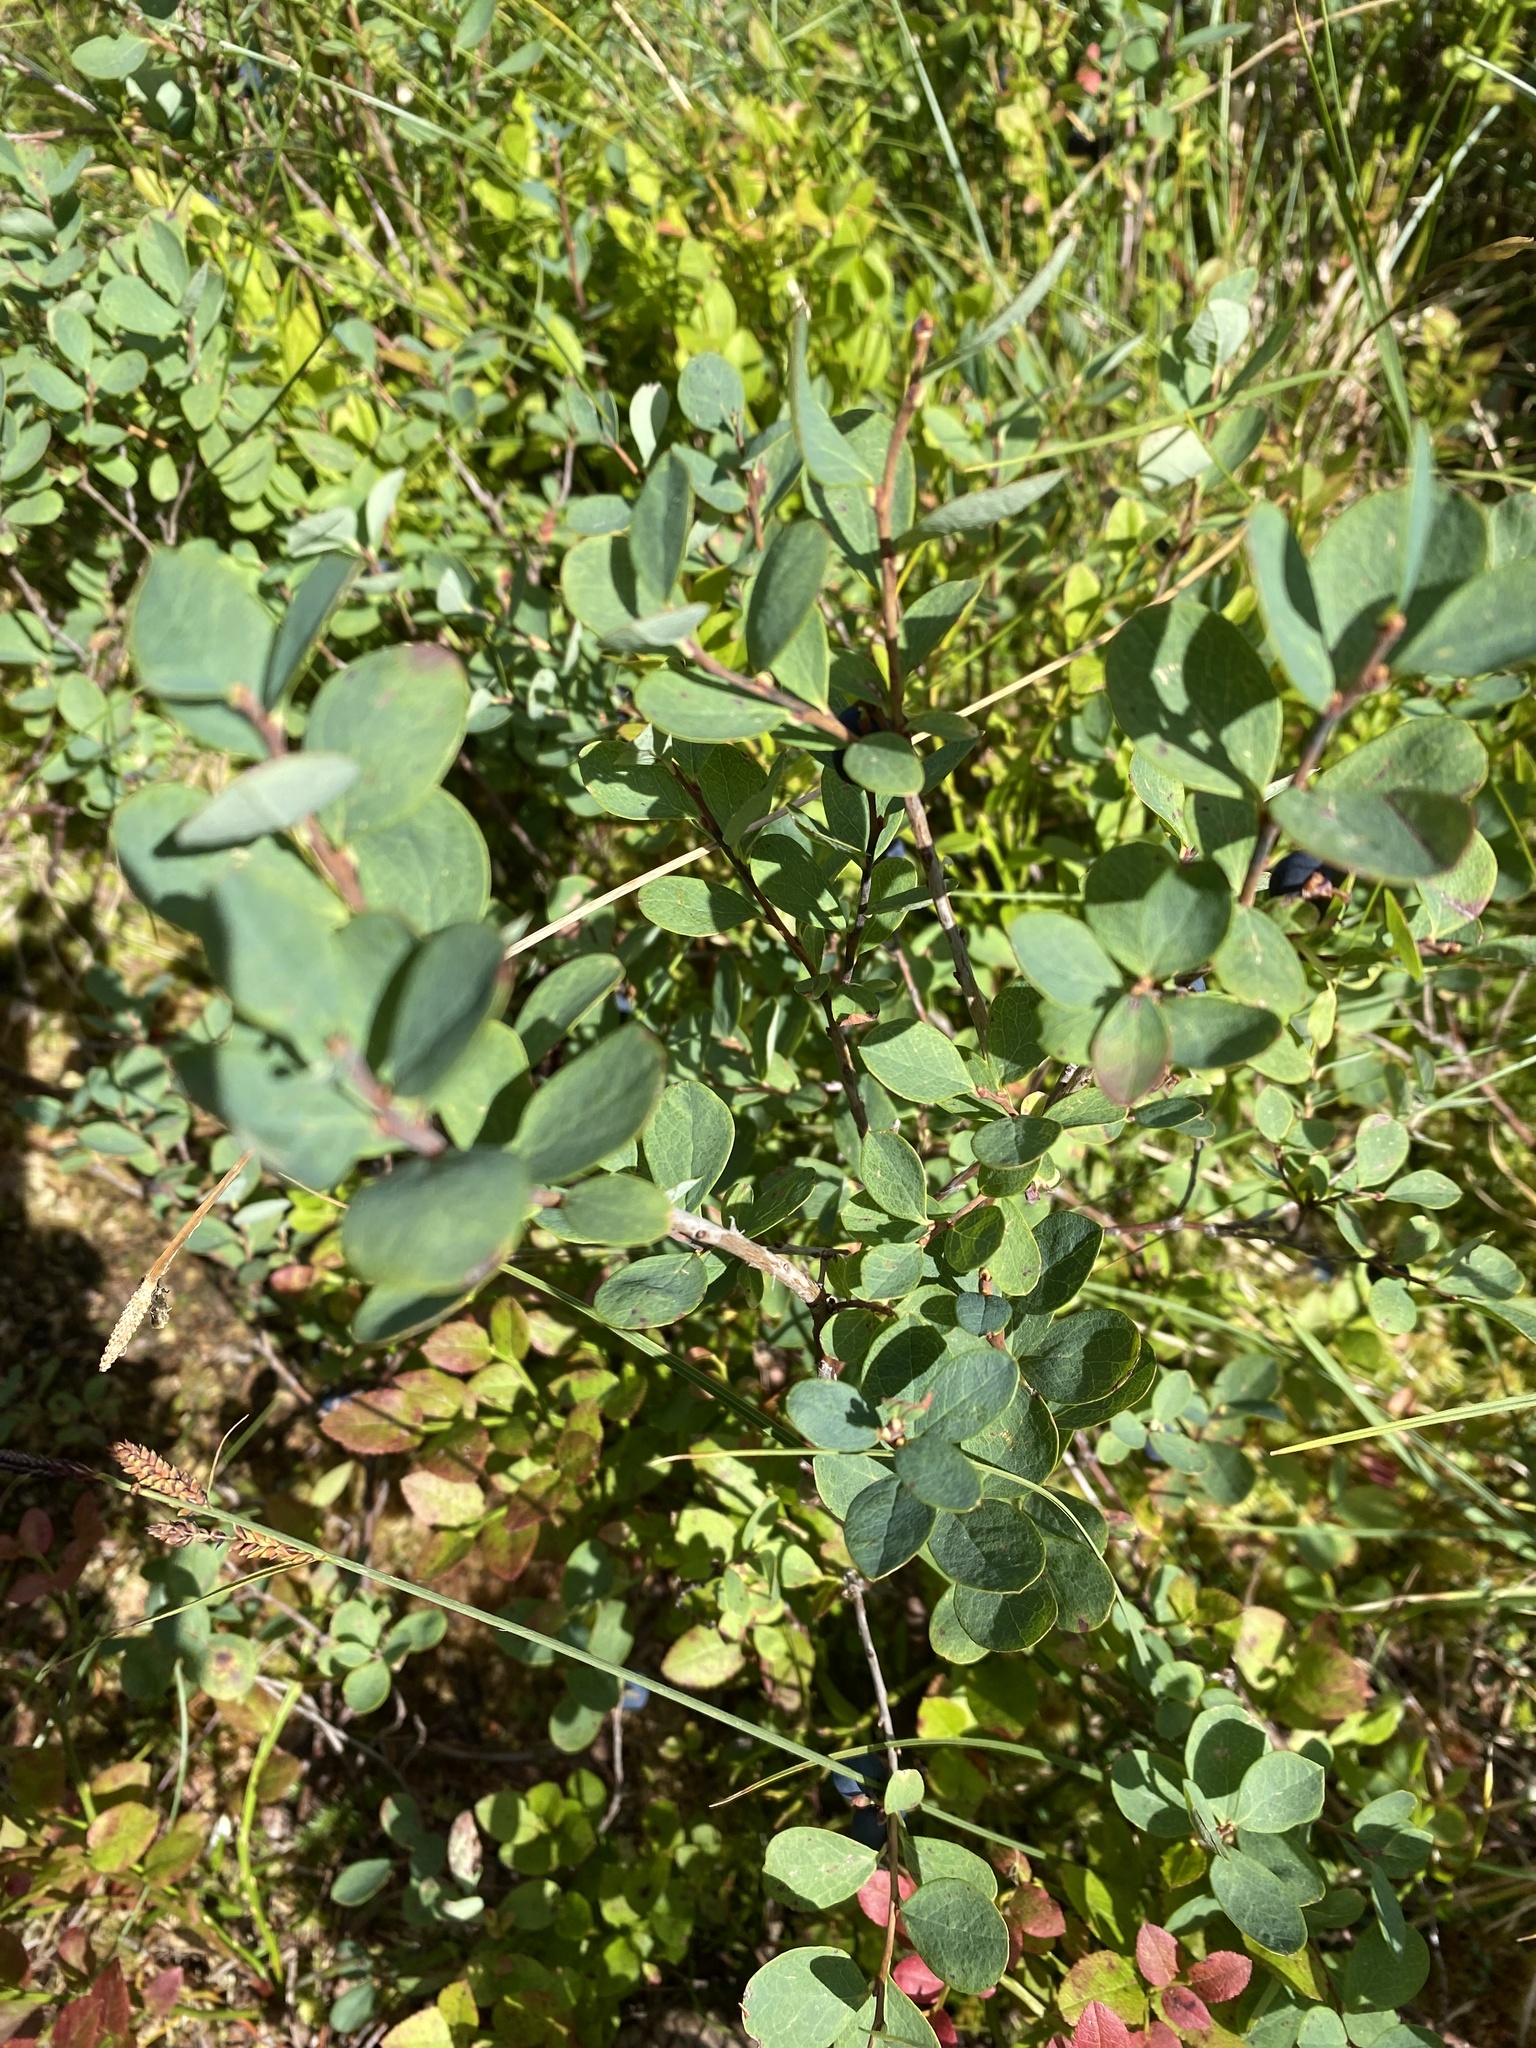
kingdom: Plantae
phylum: Tracheophyta
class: Magnoliopsida
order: Ericales
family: Ericaceae
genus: Vaccinium
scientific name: Vaccinium uliginosum
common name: Bog bilberry
